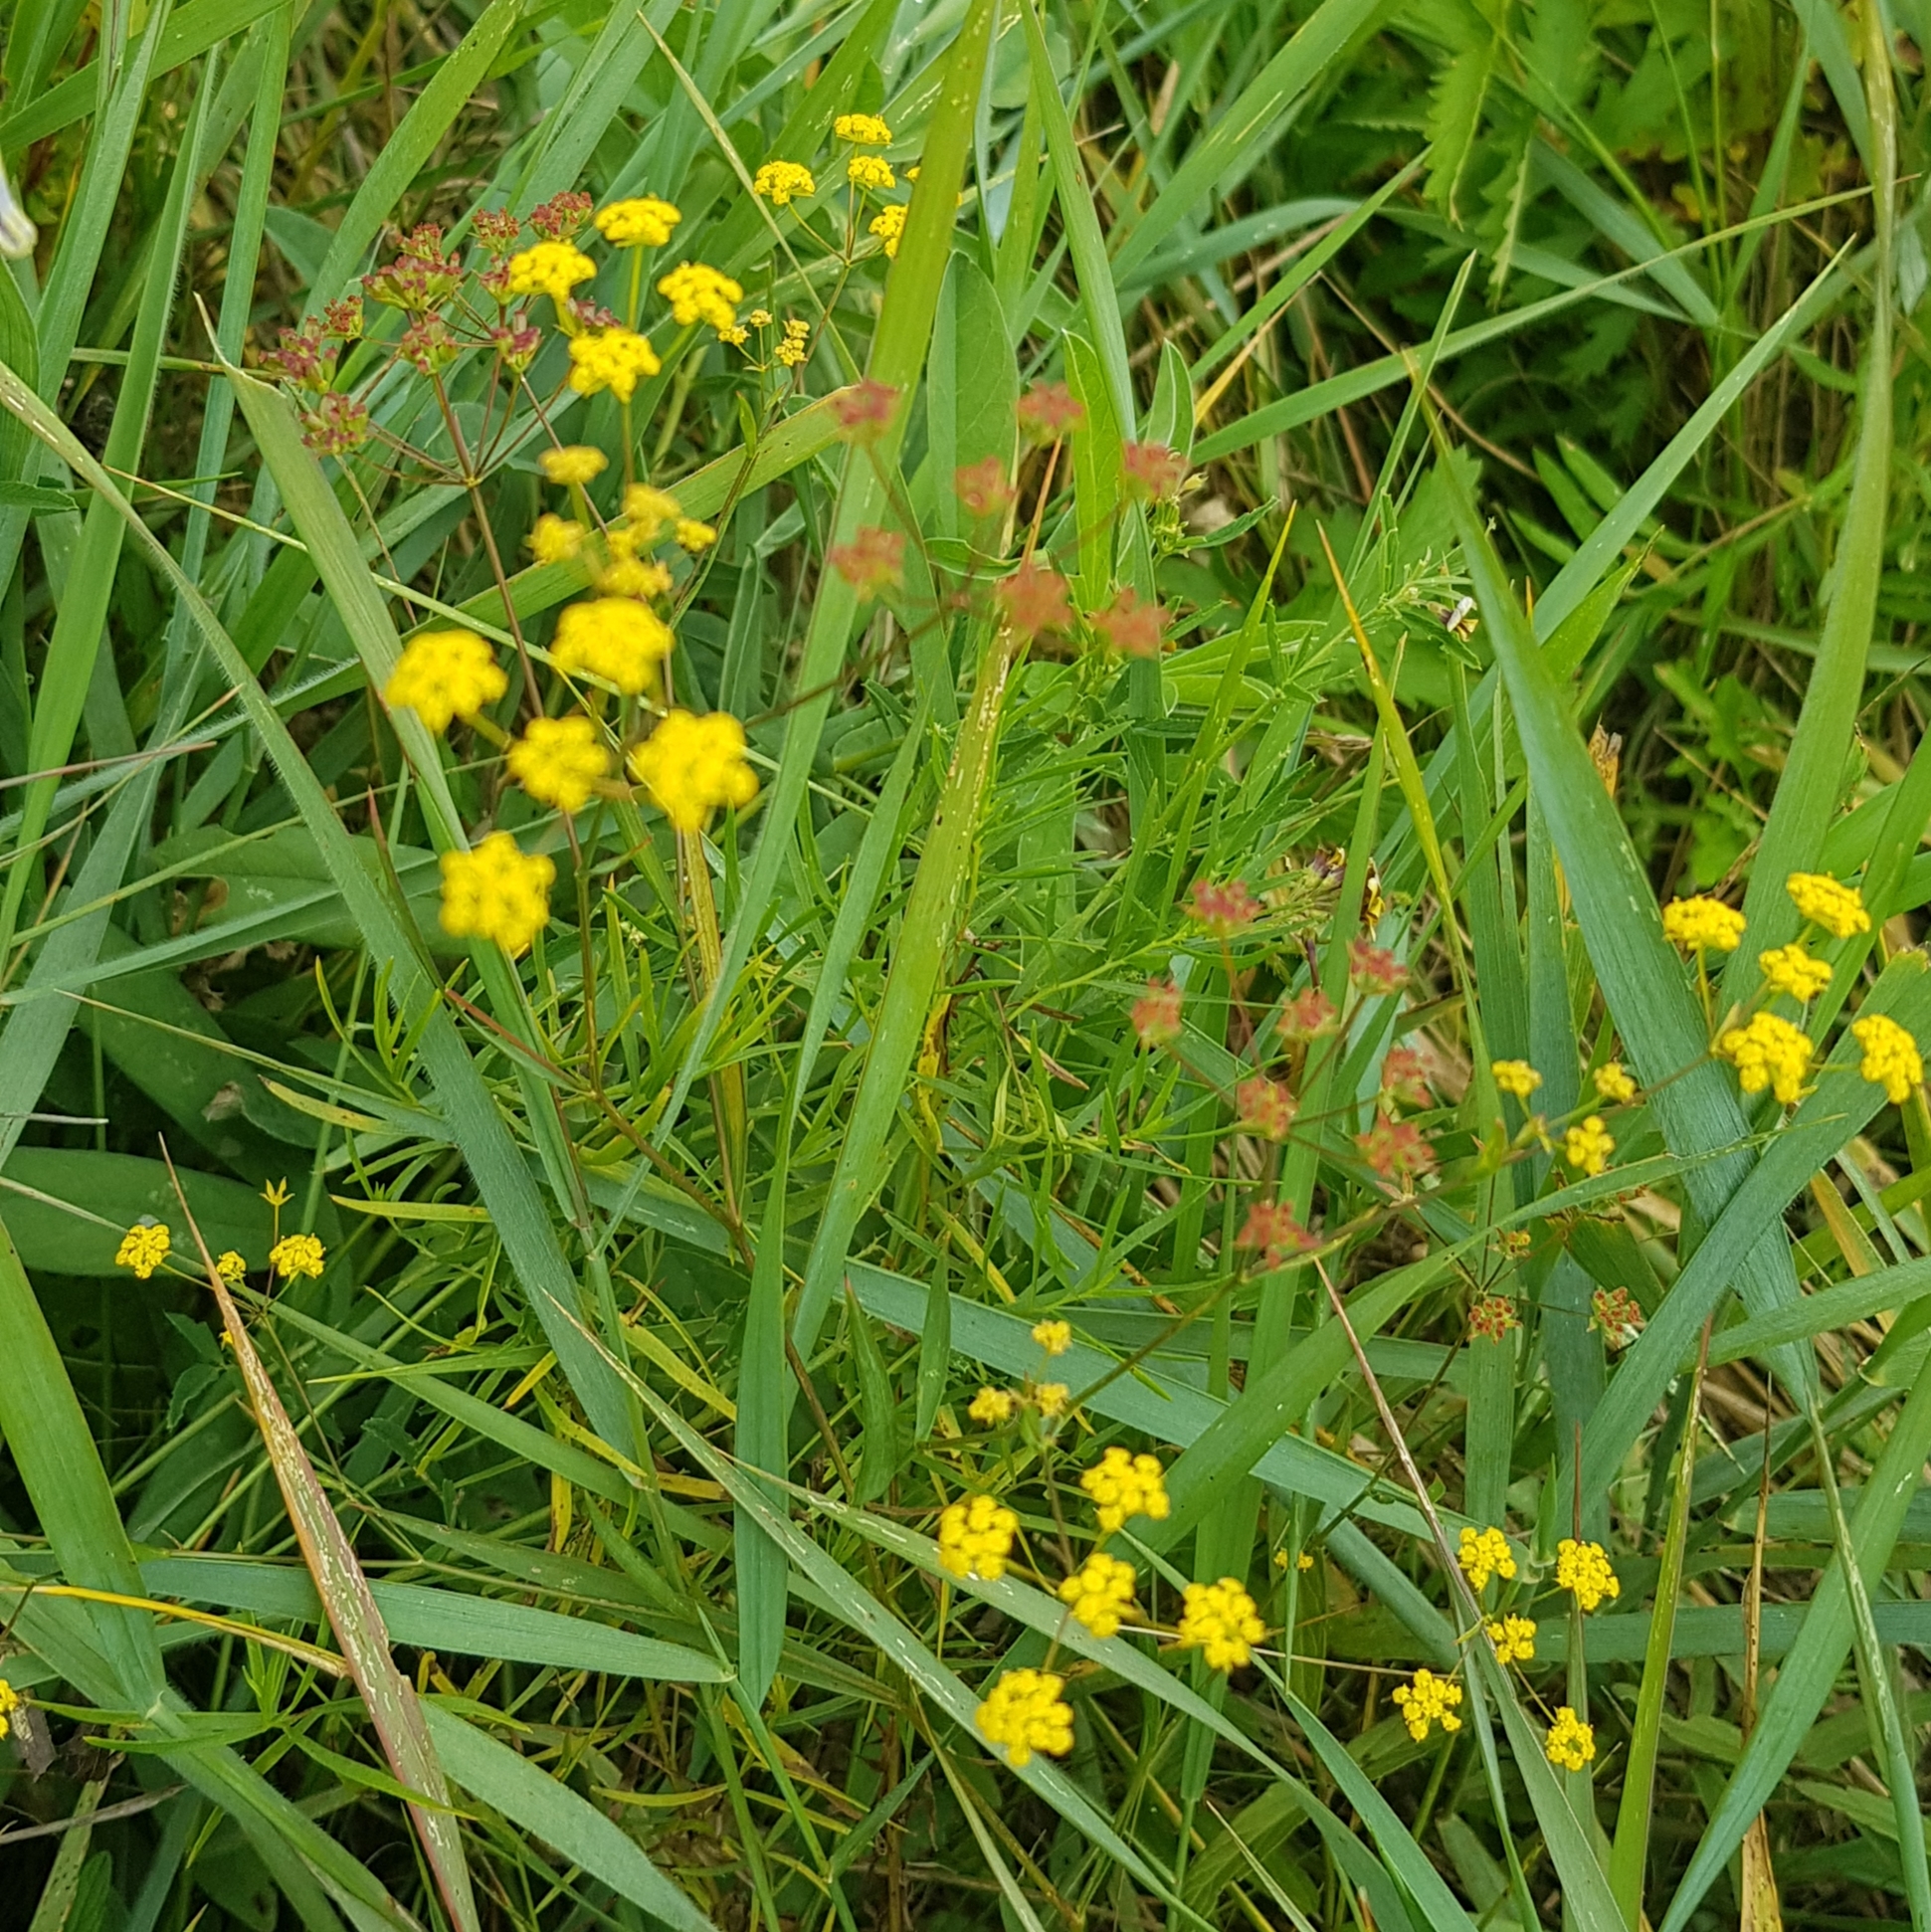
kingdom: Plantae
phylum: Tracheophyta
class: Magnoliopsida
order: Apiales
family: Apiaceae
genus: Bupleurum
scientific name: Bupleurum scorzonerifolium
